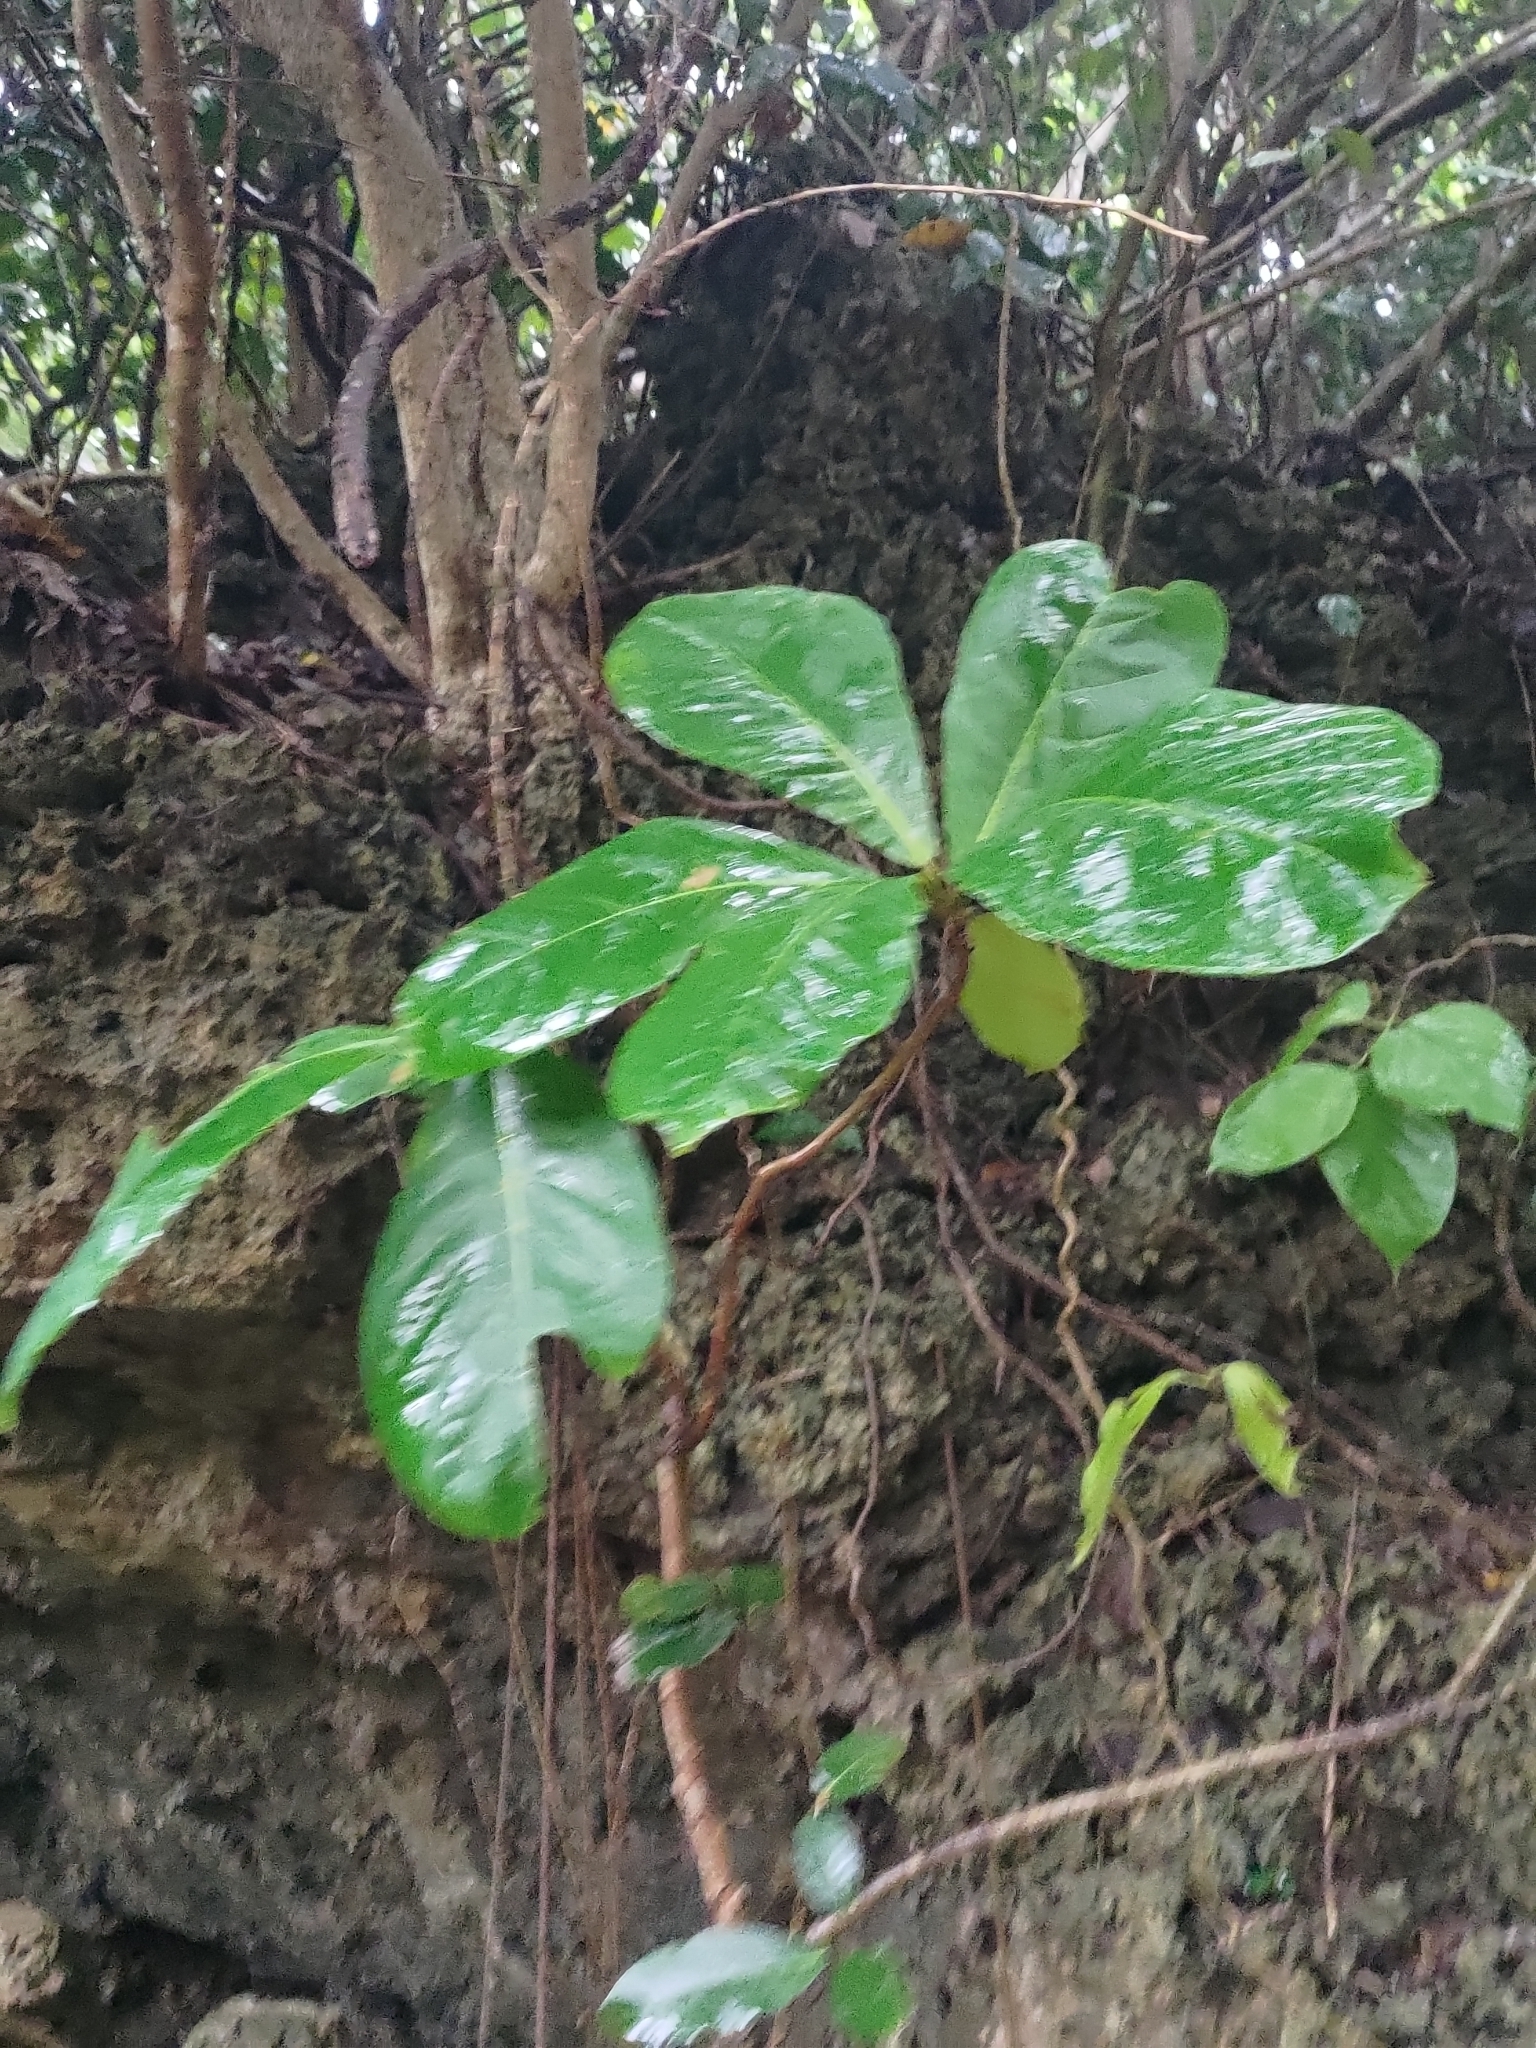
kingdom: Plantae
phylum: Tracheophyta
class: Magnoliopsida
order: Myrtales
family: Combretaceae
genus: Terminalia
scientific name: Terminalia catappa
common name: Tropical almond
